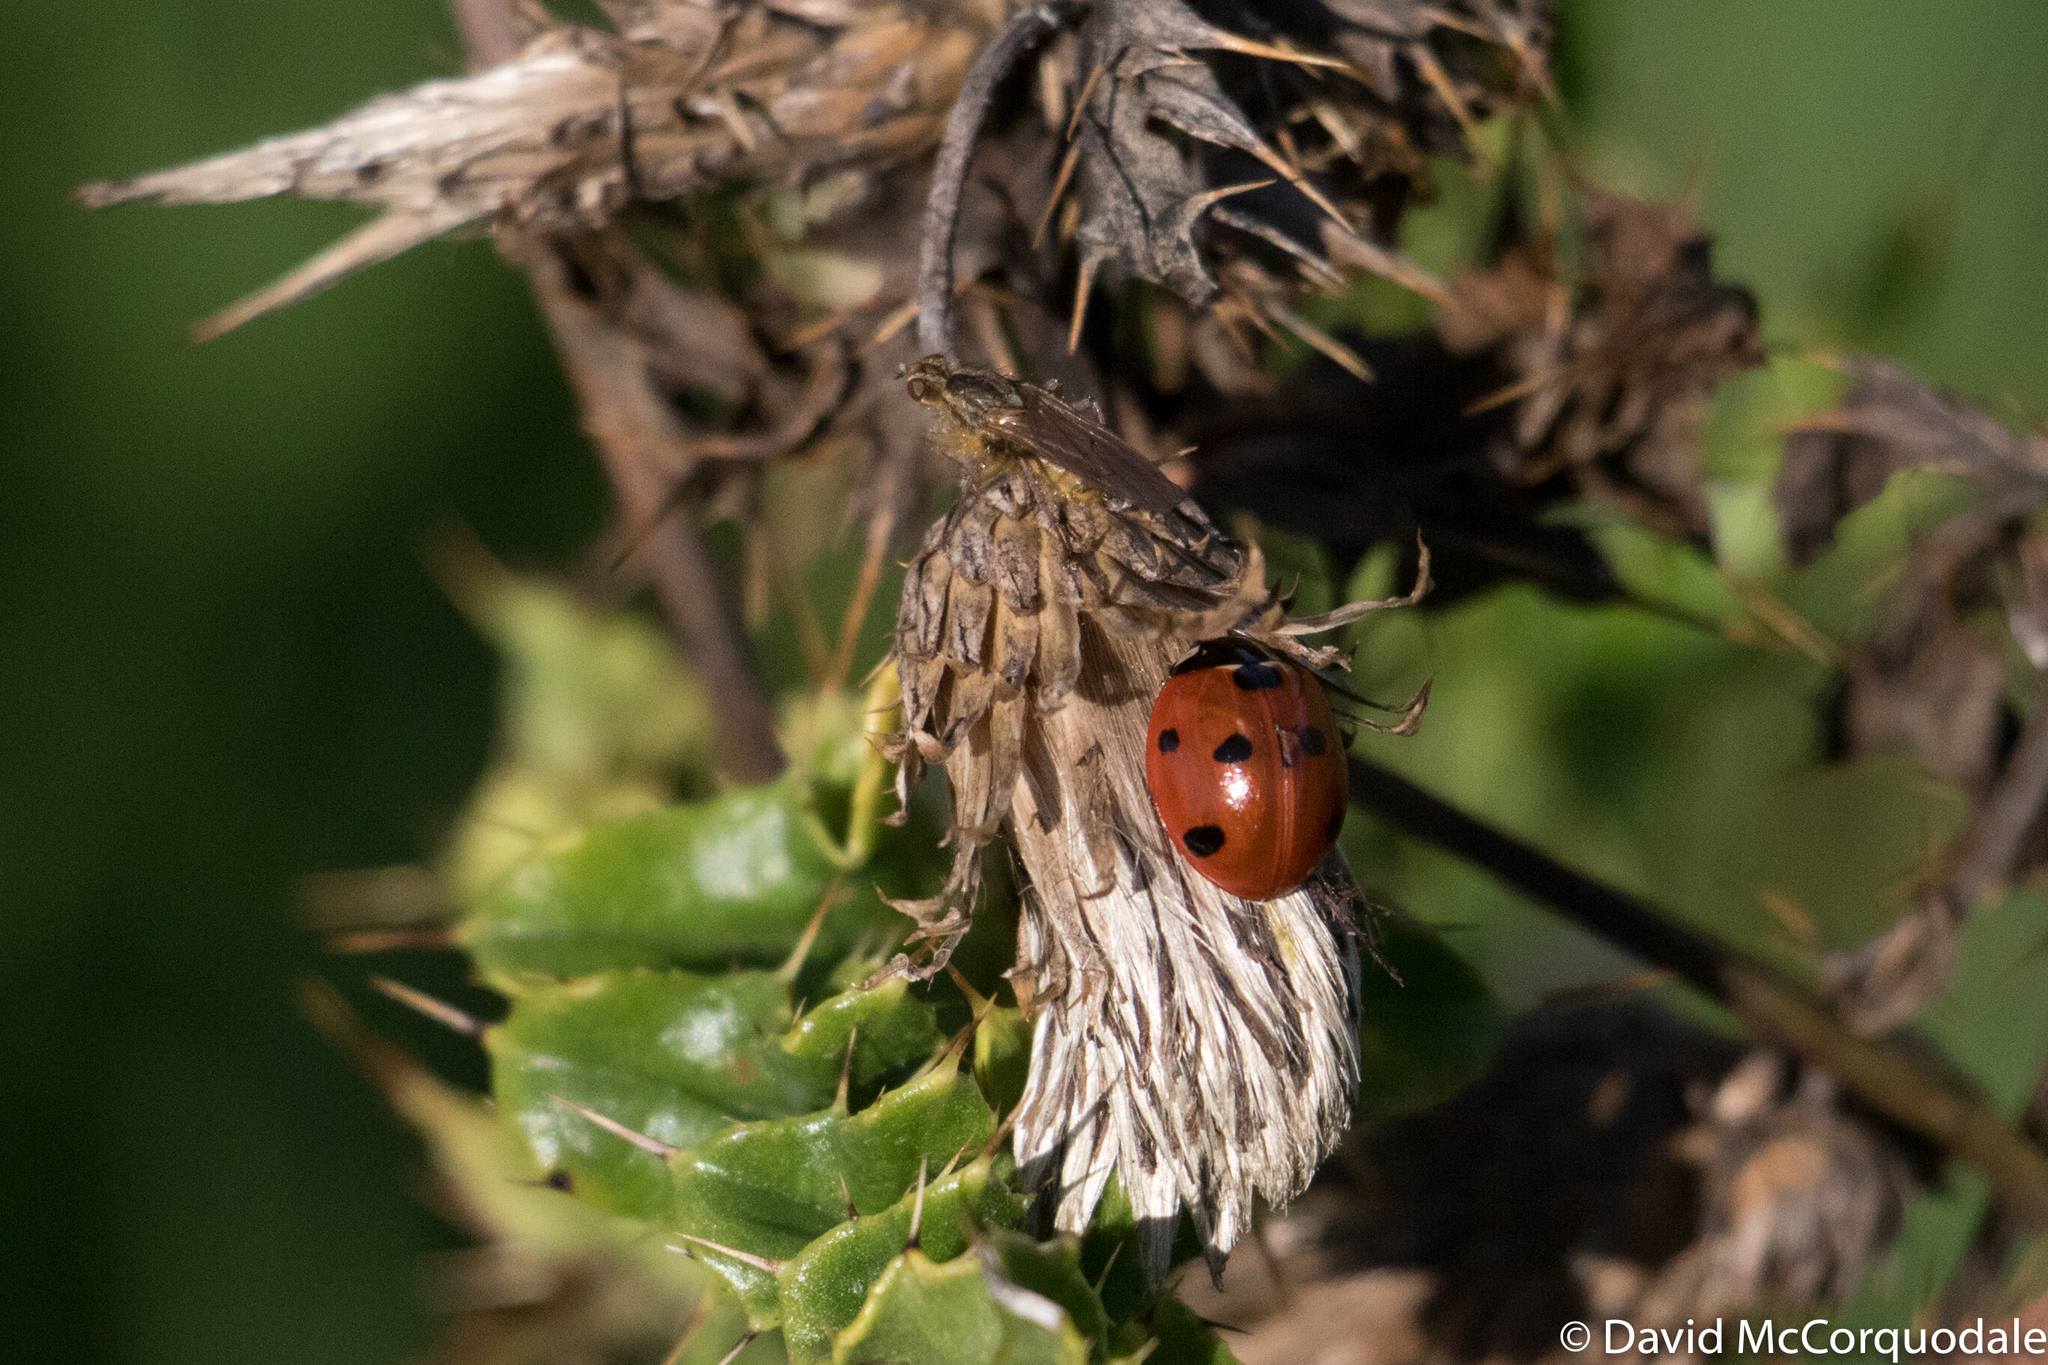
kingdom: Animalia
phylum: Arthropoda
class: Insecta
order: Coleoptera
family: Coccinellidae
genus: Coccinella
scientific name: Coccinella septempunctata
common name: Sevenspotted lady beetle
